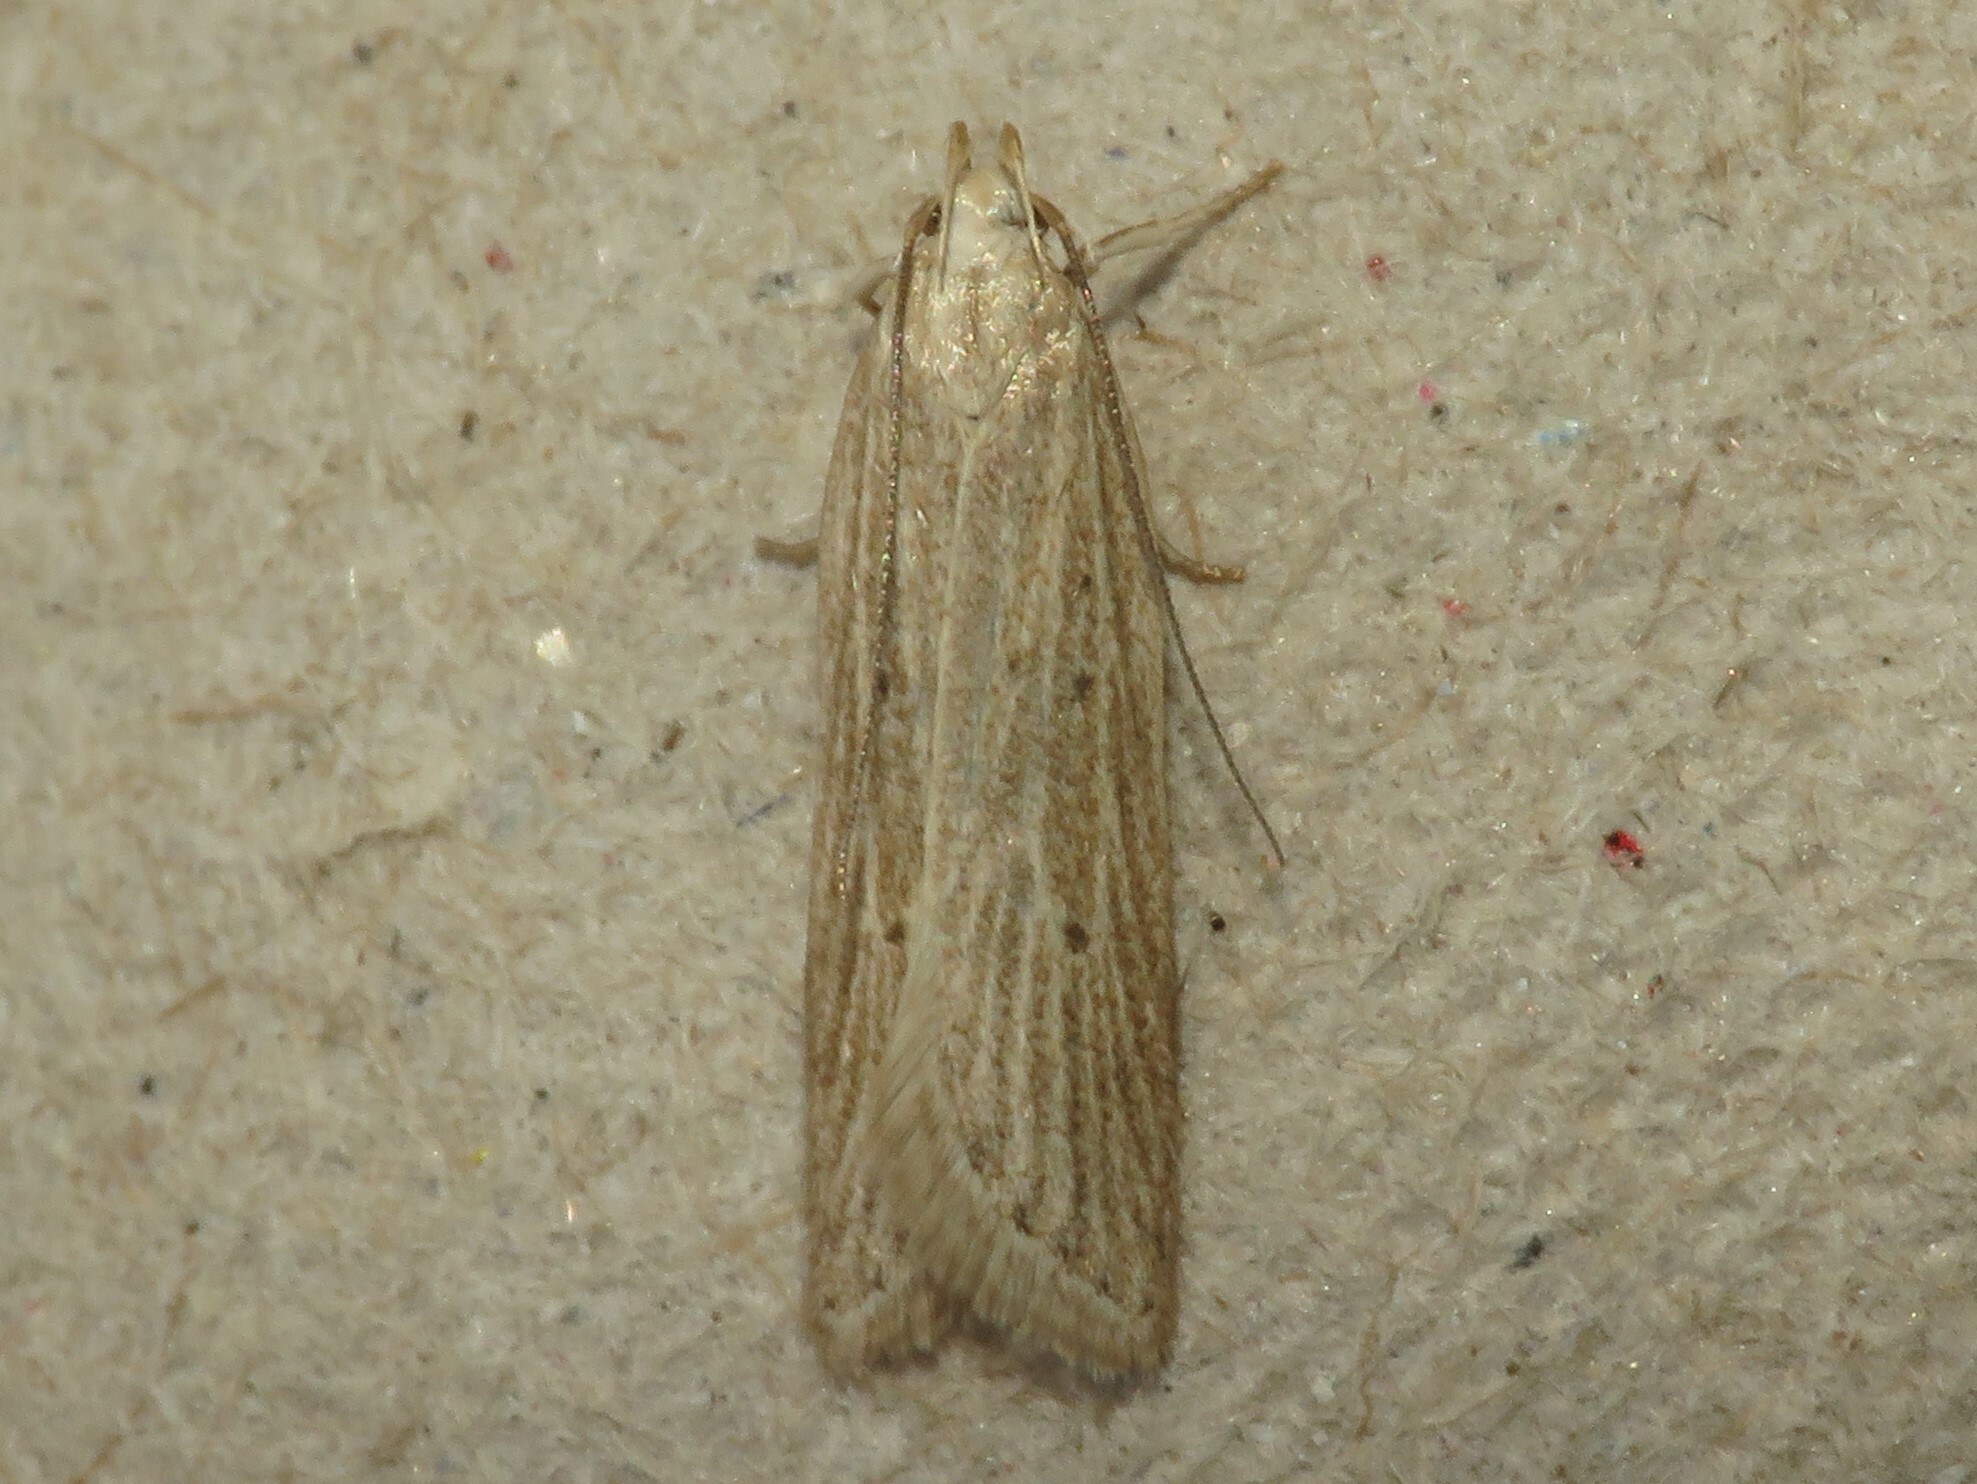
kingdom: Animalia
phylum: Arthropoda
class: Insecta
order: Lepidoptera
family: Gelechiidae
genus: Helcystogramma
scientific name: Helcystogramma fernaldella
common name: Fernald's helcystogramma moth
